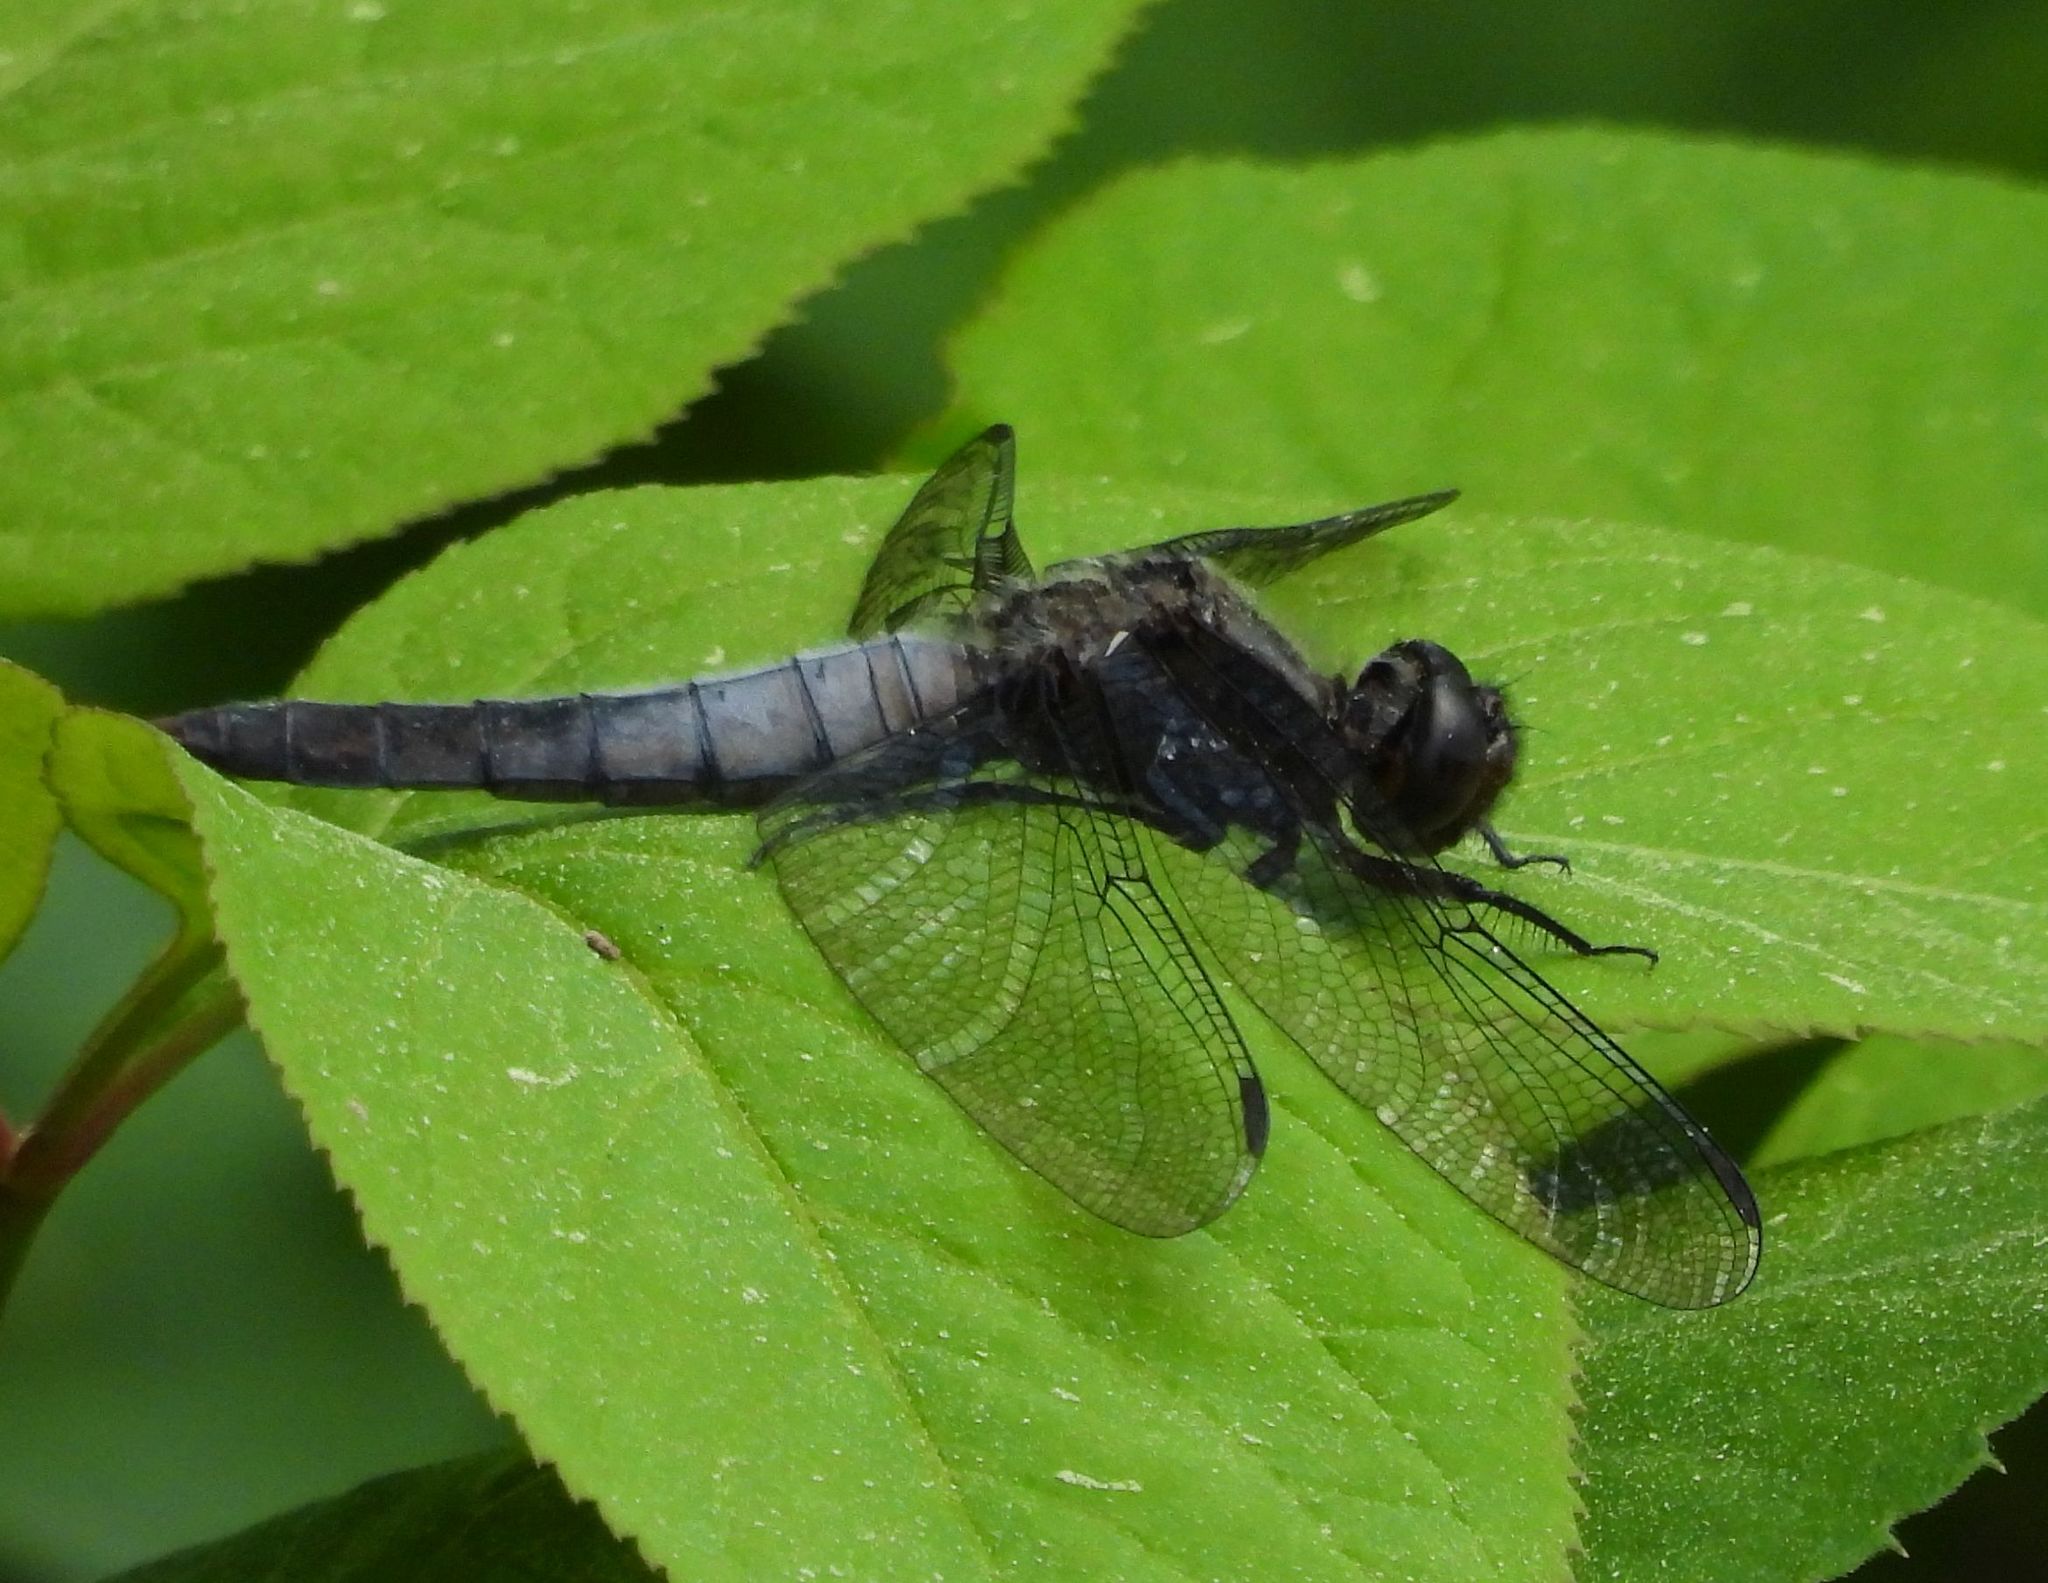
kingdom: Animalia
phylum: Arthropoda
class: Insecta
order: Odonata
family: Libellulidae
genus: Ladona
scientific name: Ladona julia
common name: Chalk-fronted corporal
